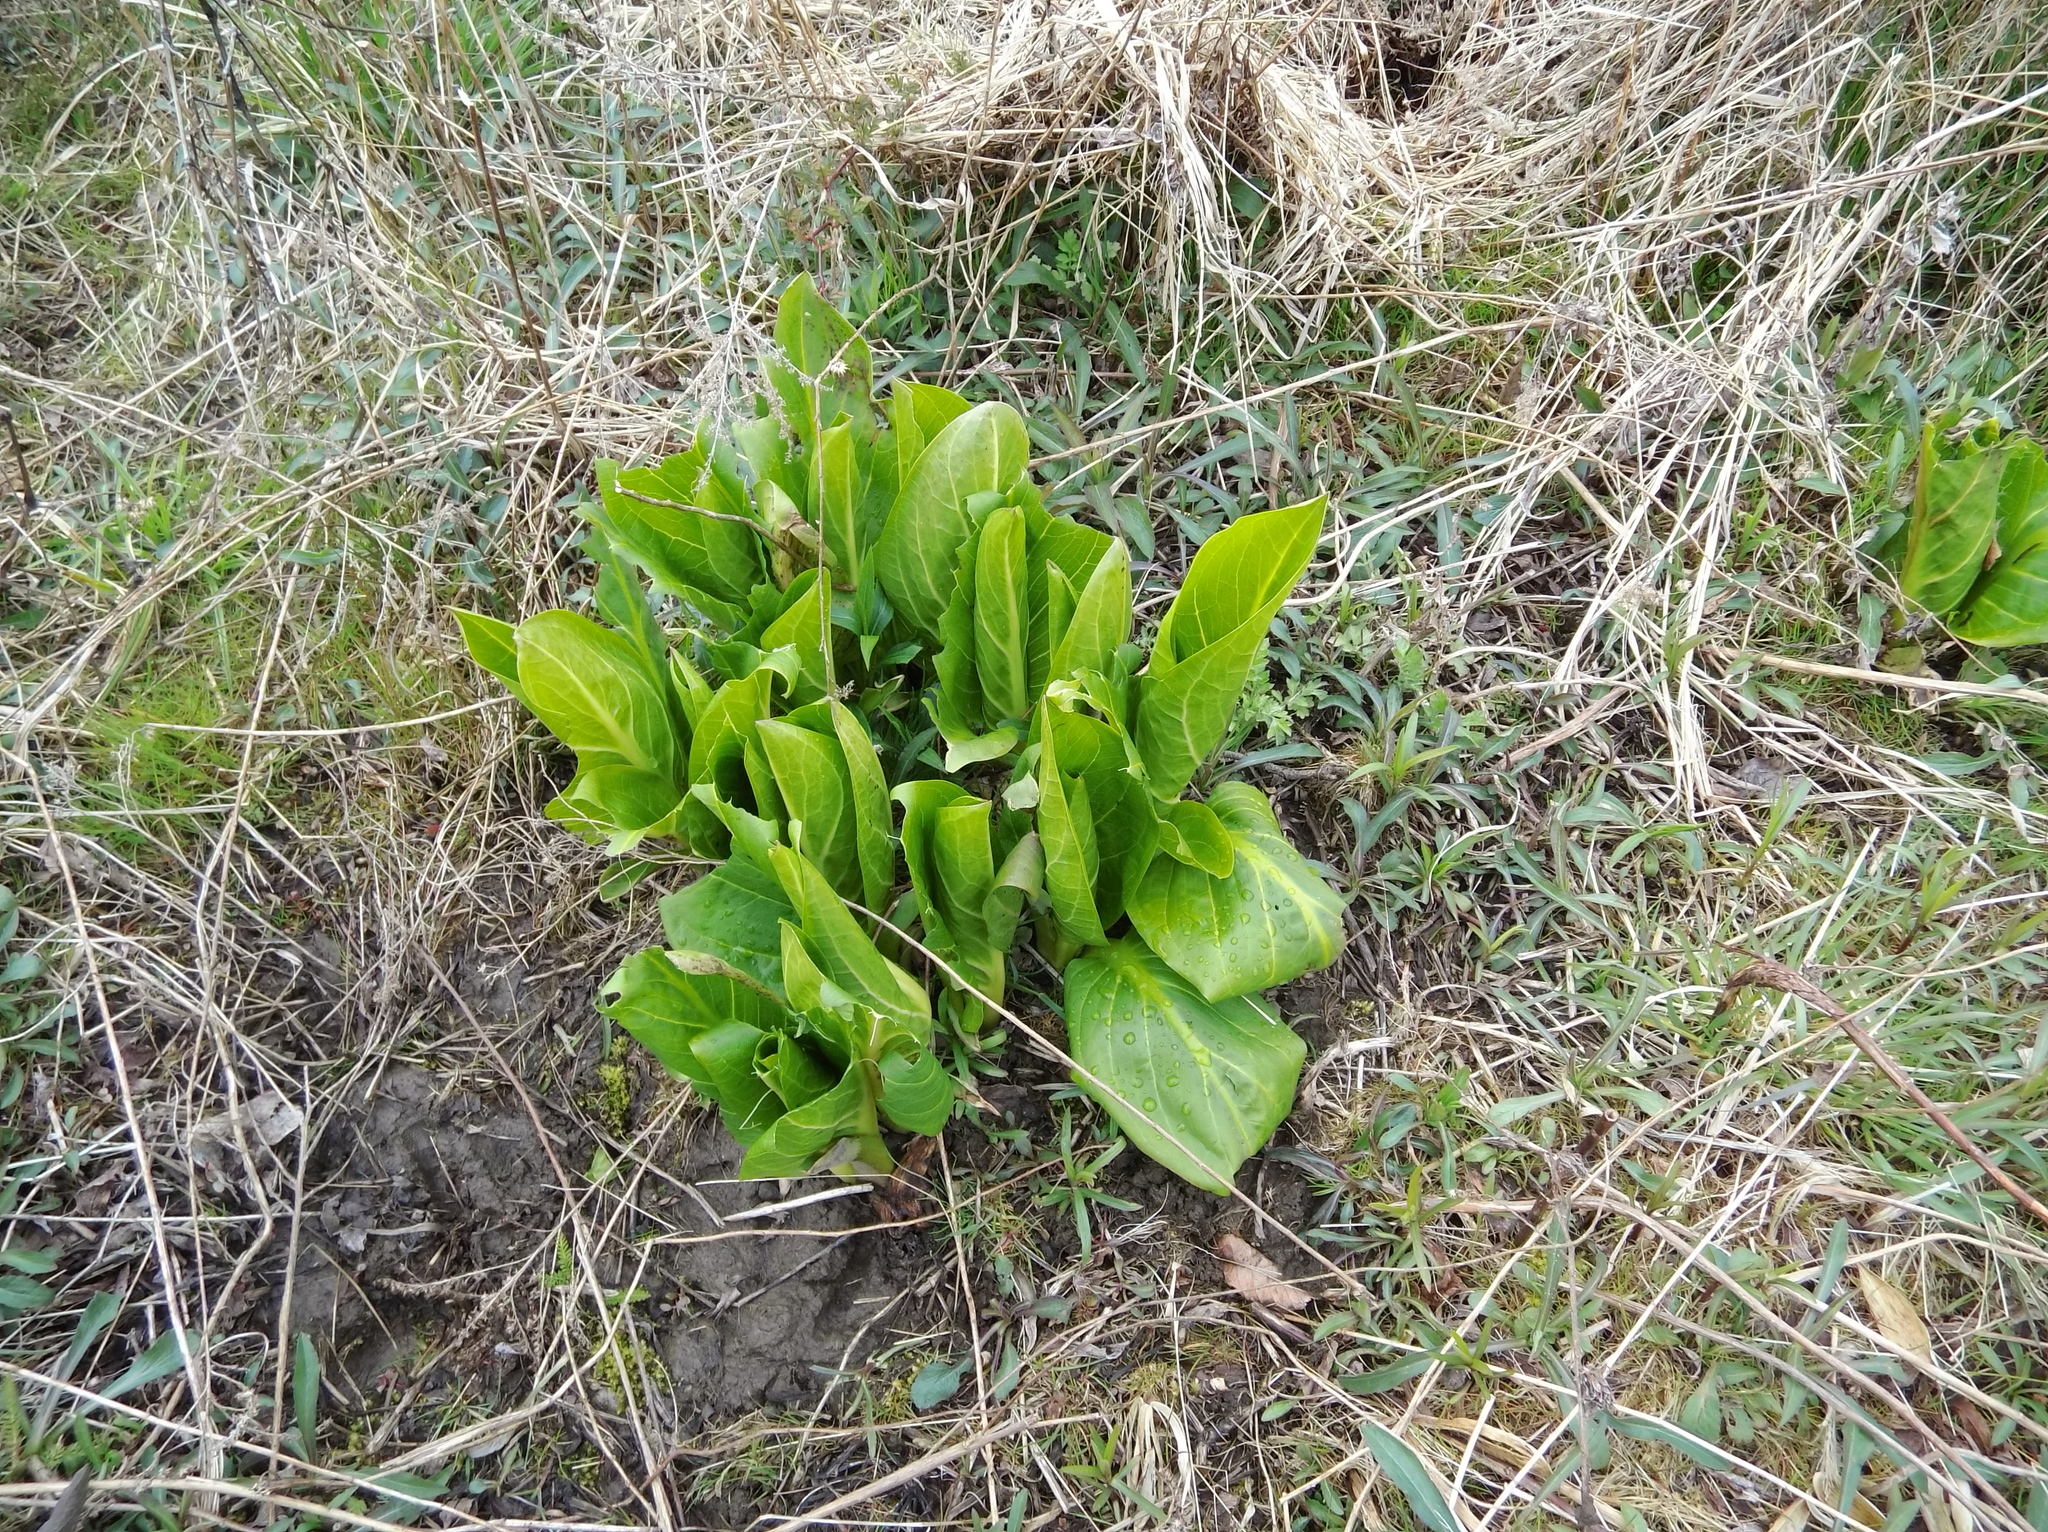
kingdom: Plantae
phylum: Tracheophyta
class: Liliopsida
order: Alismatales
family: Araceae
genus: Symplocarpus
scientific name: Symplocarpus foetidus
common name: Eastern skunk cabbage
